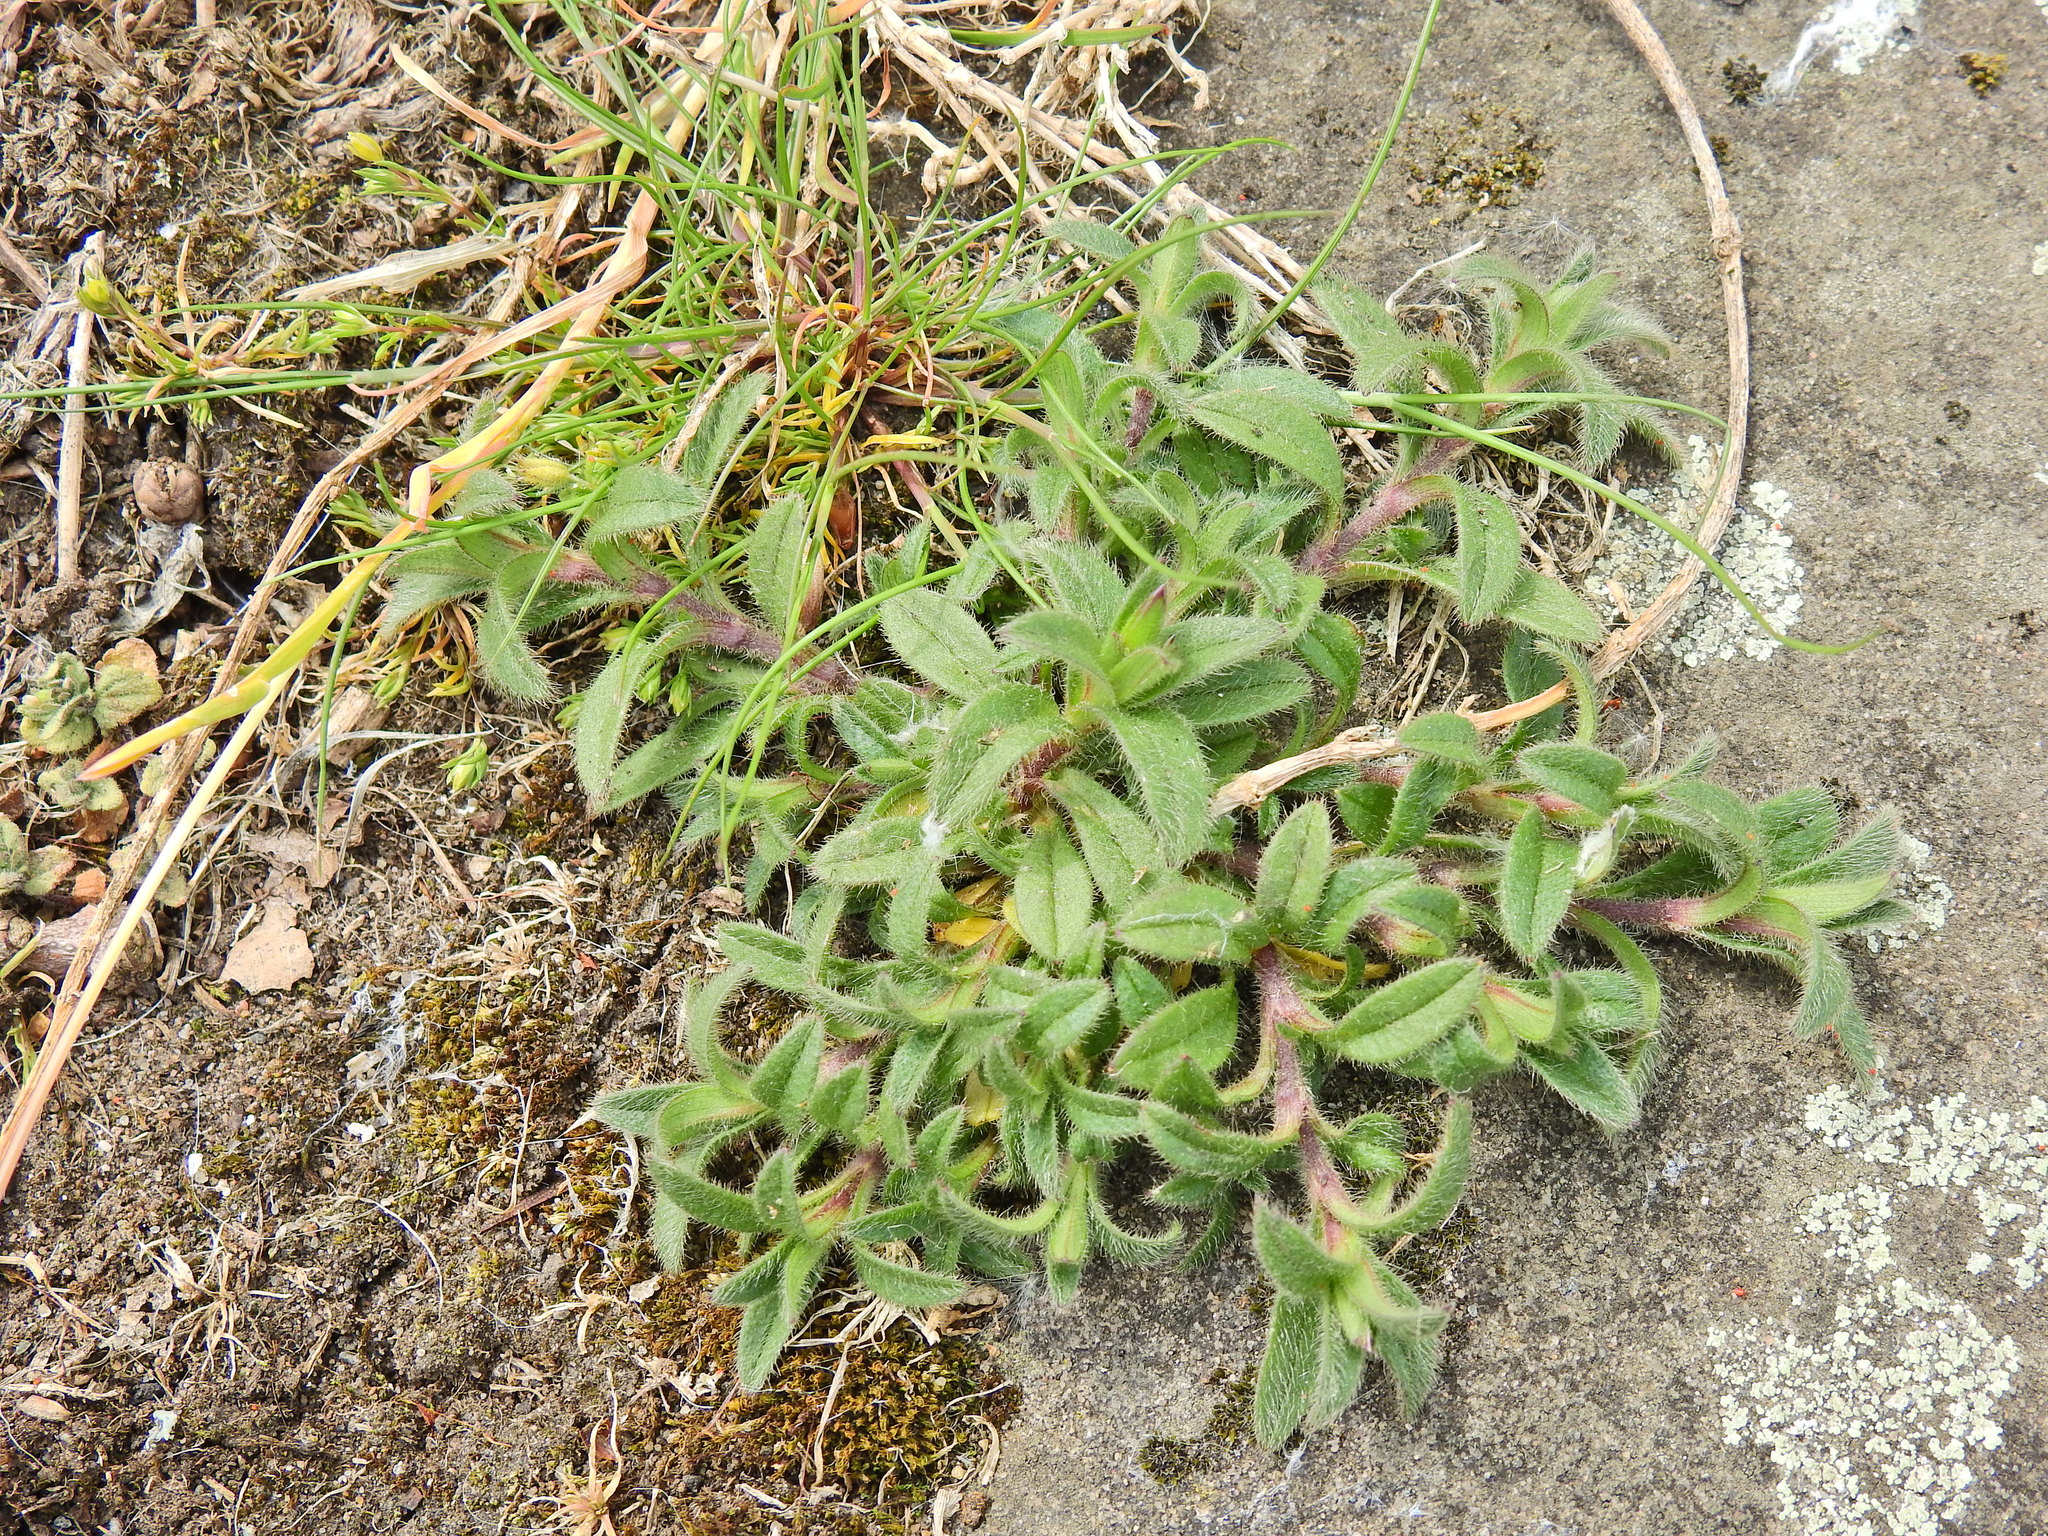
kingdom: Plantae
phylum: Tracheophyta
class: Magnoliopsida
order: Caryophyllales
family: Caryophyllaceae
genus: Cerastium
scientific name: Cerastium fontanum
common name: Common mouse-ear
